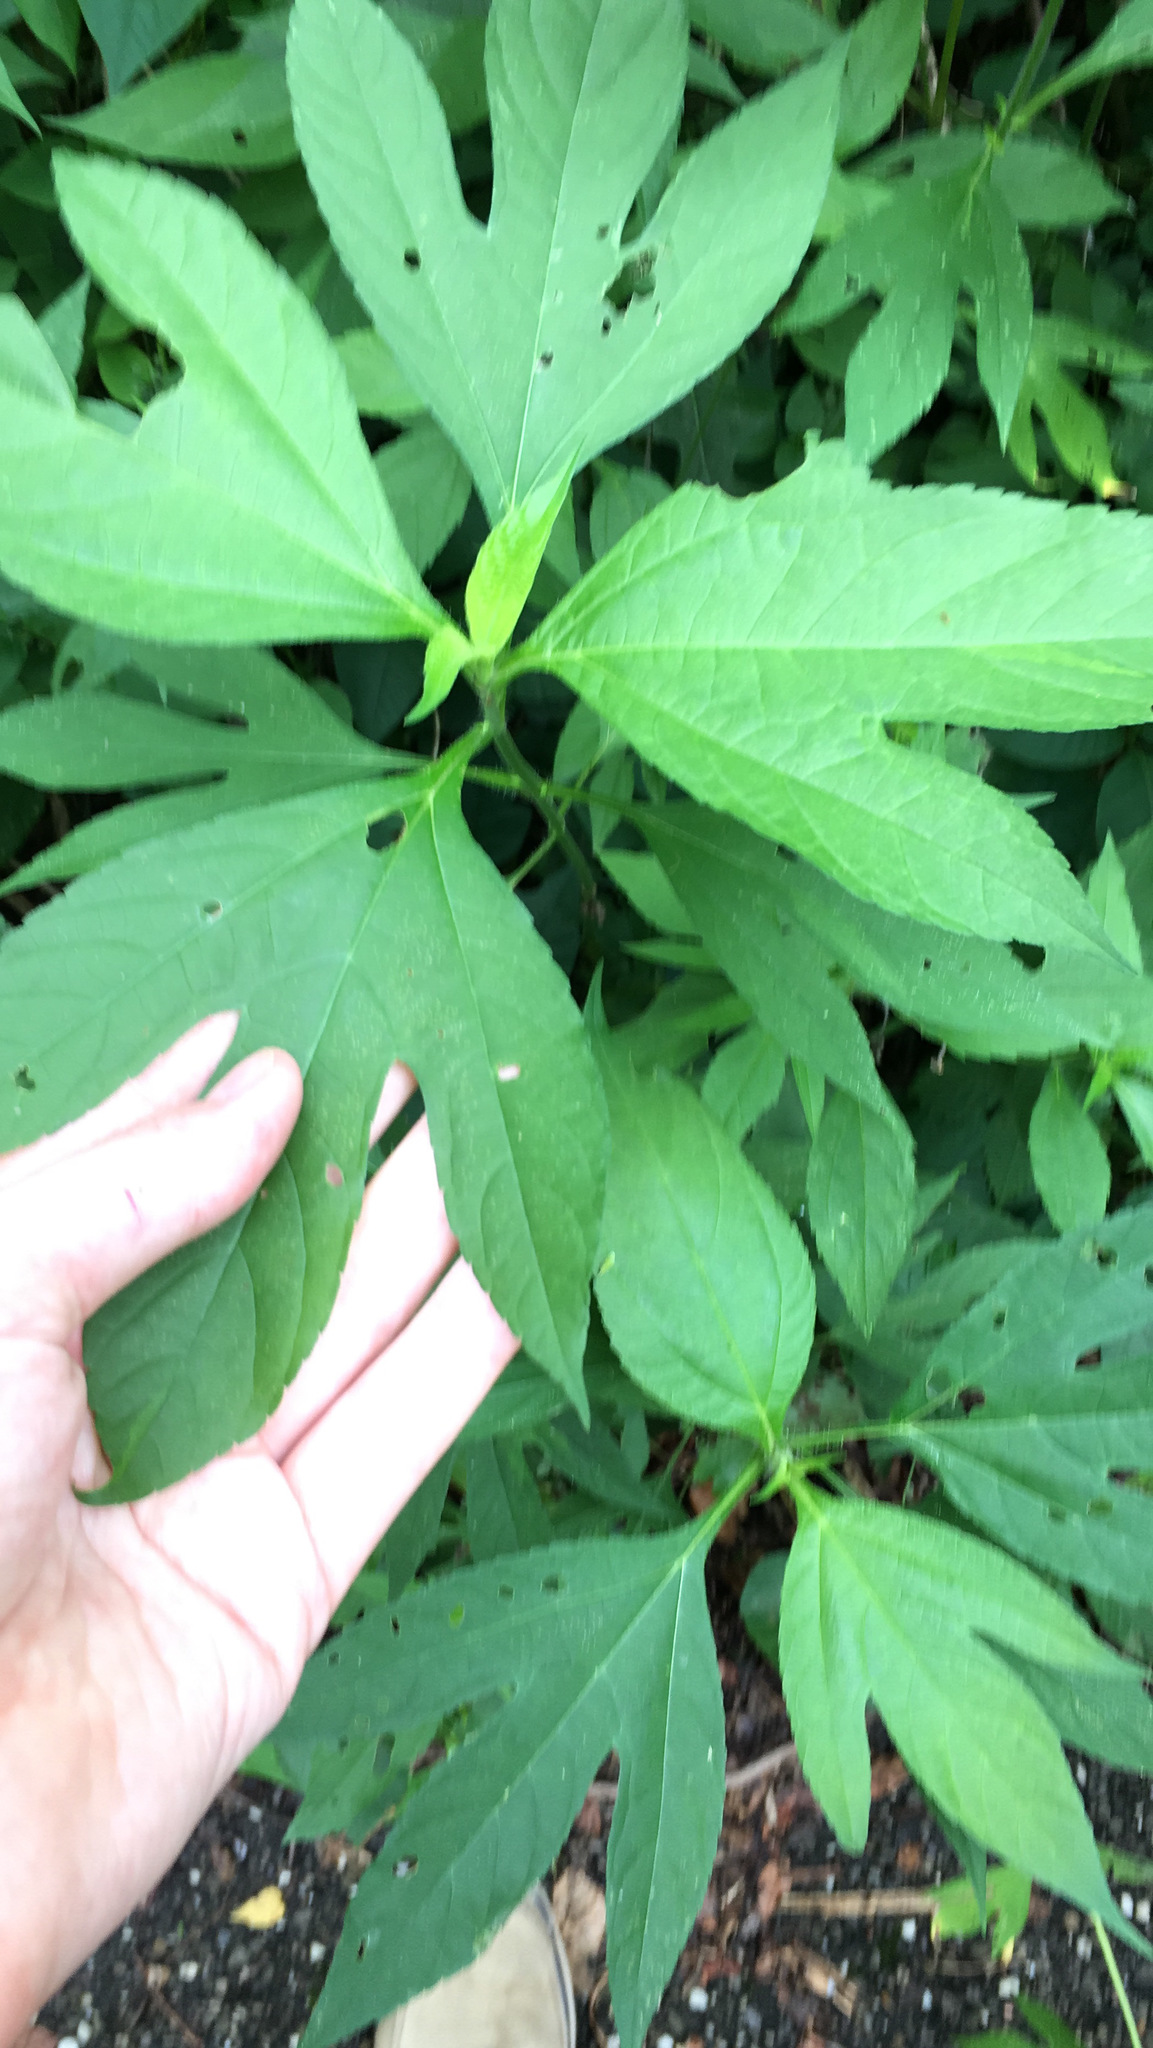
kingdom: Plantae
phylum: Tracheophyta
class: Magnoliopsida
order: Asterales
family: Asteraceae
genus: Ambrosia
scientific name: Ambrosia trifida
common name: Giant ragweed
